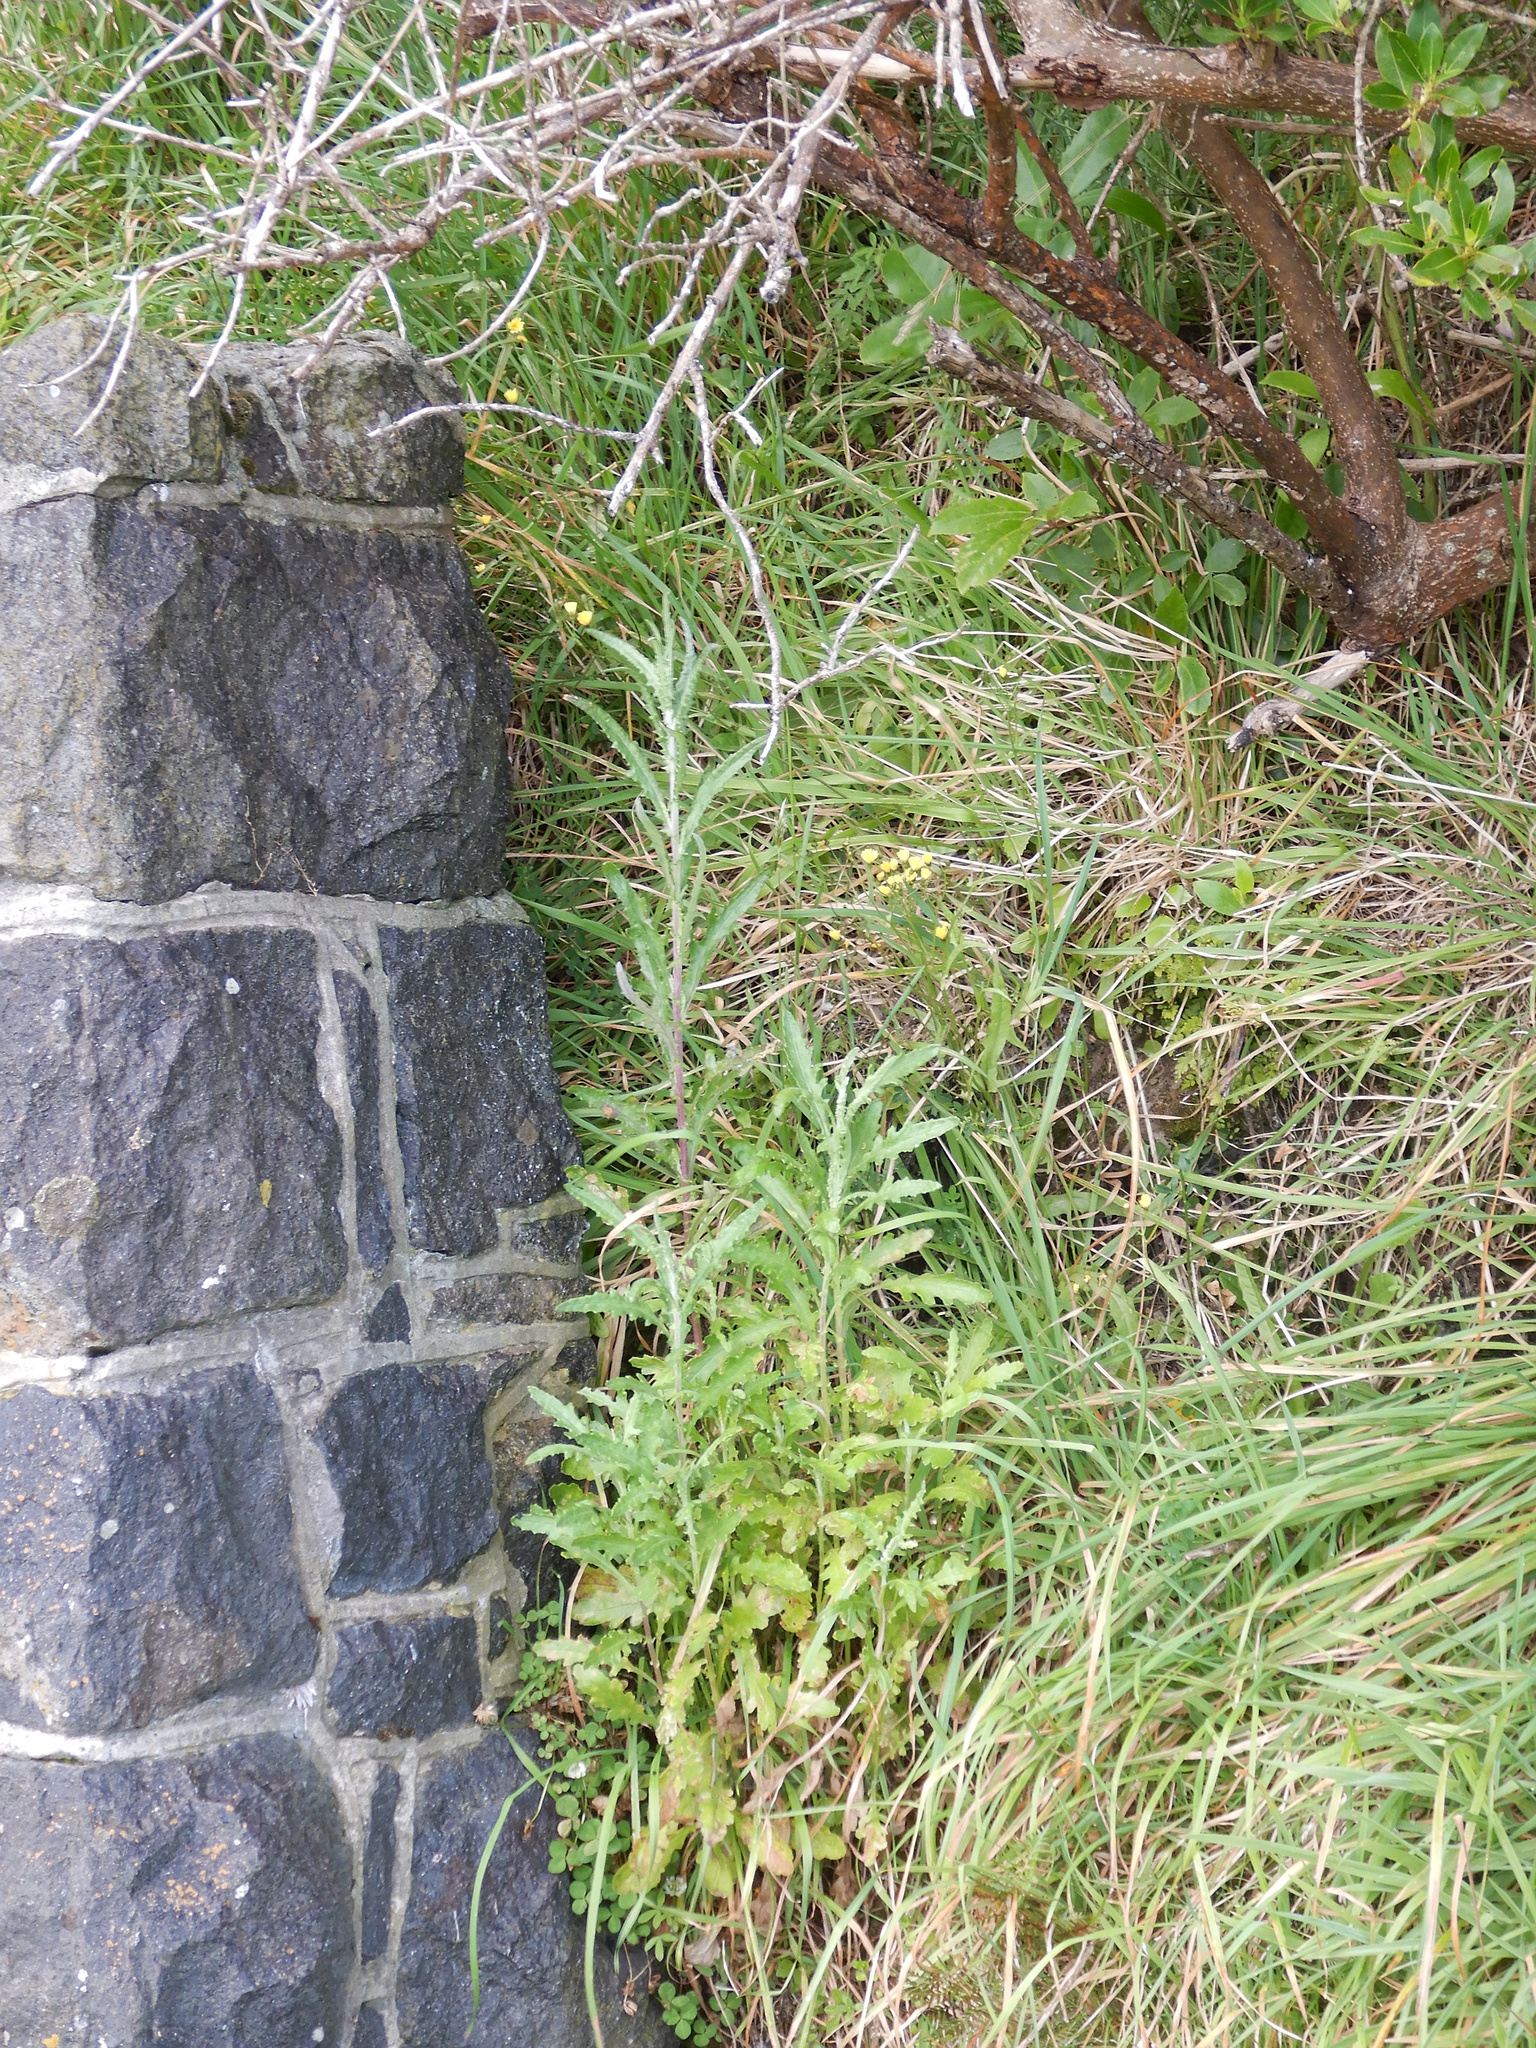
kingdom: Plantae
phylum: Tracheophyta
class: Magnoliopsida
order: Asterales
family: Asteraceae
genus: Senecio
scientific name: Senecio glomeratus
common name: Cutleaf burnweed
